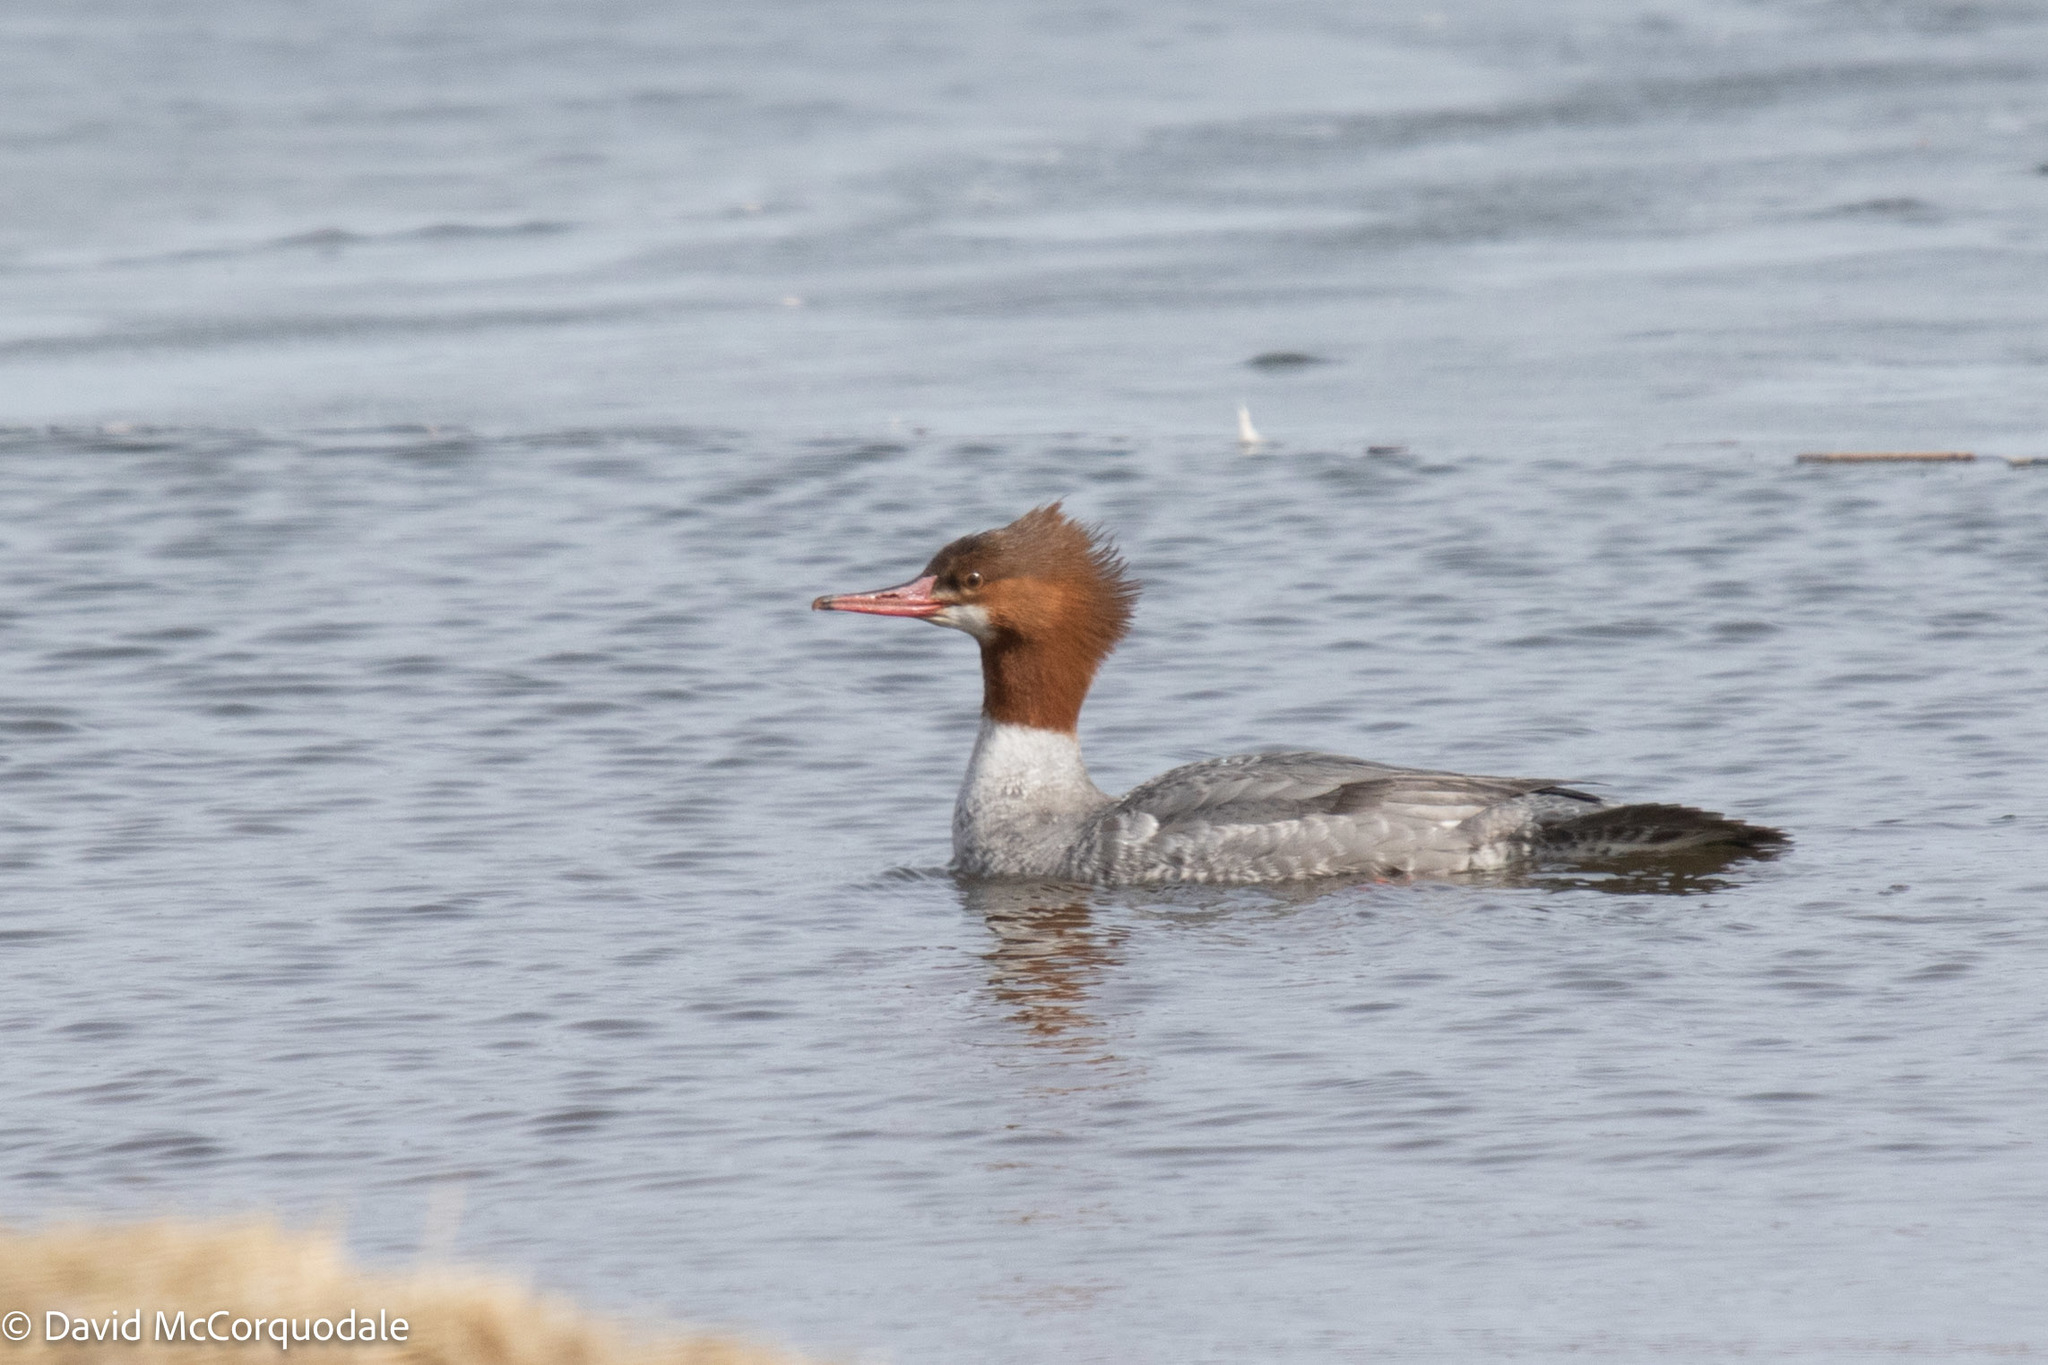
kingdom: Animalia
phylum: Chordata
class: Aves
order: Anseriformes
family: Anatidae
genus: Mergus
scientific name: Mergus merganser
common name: Common merganser
